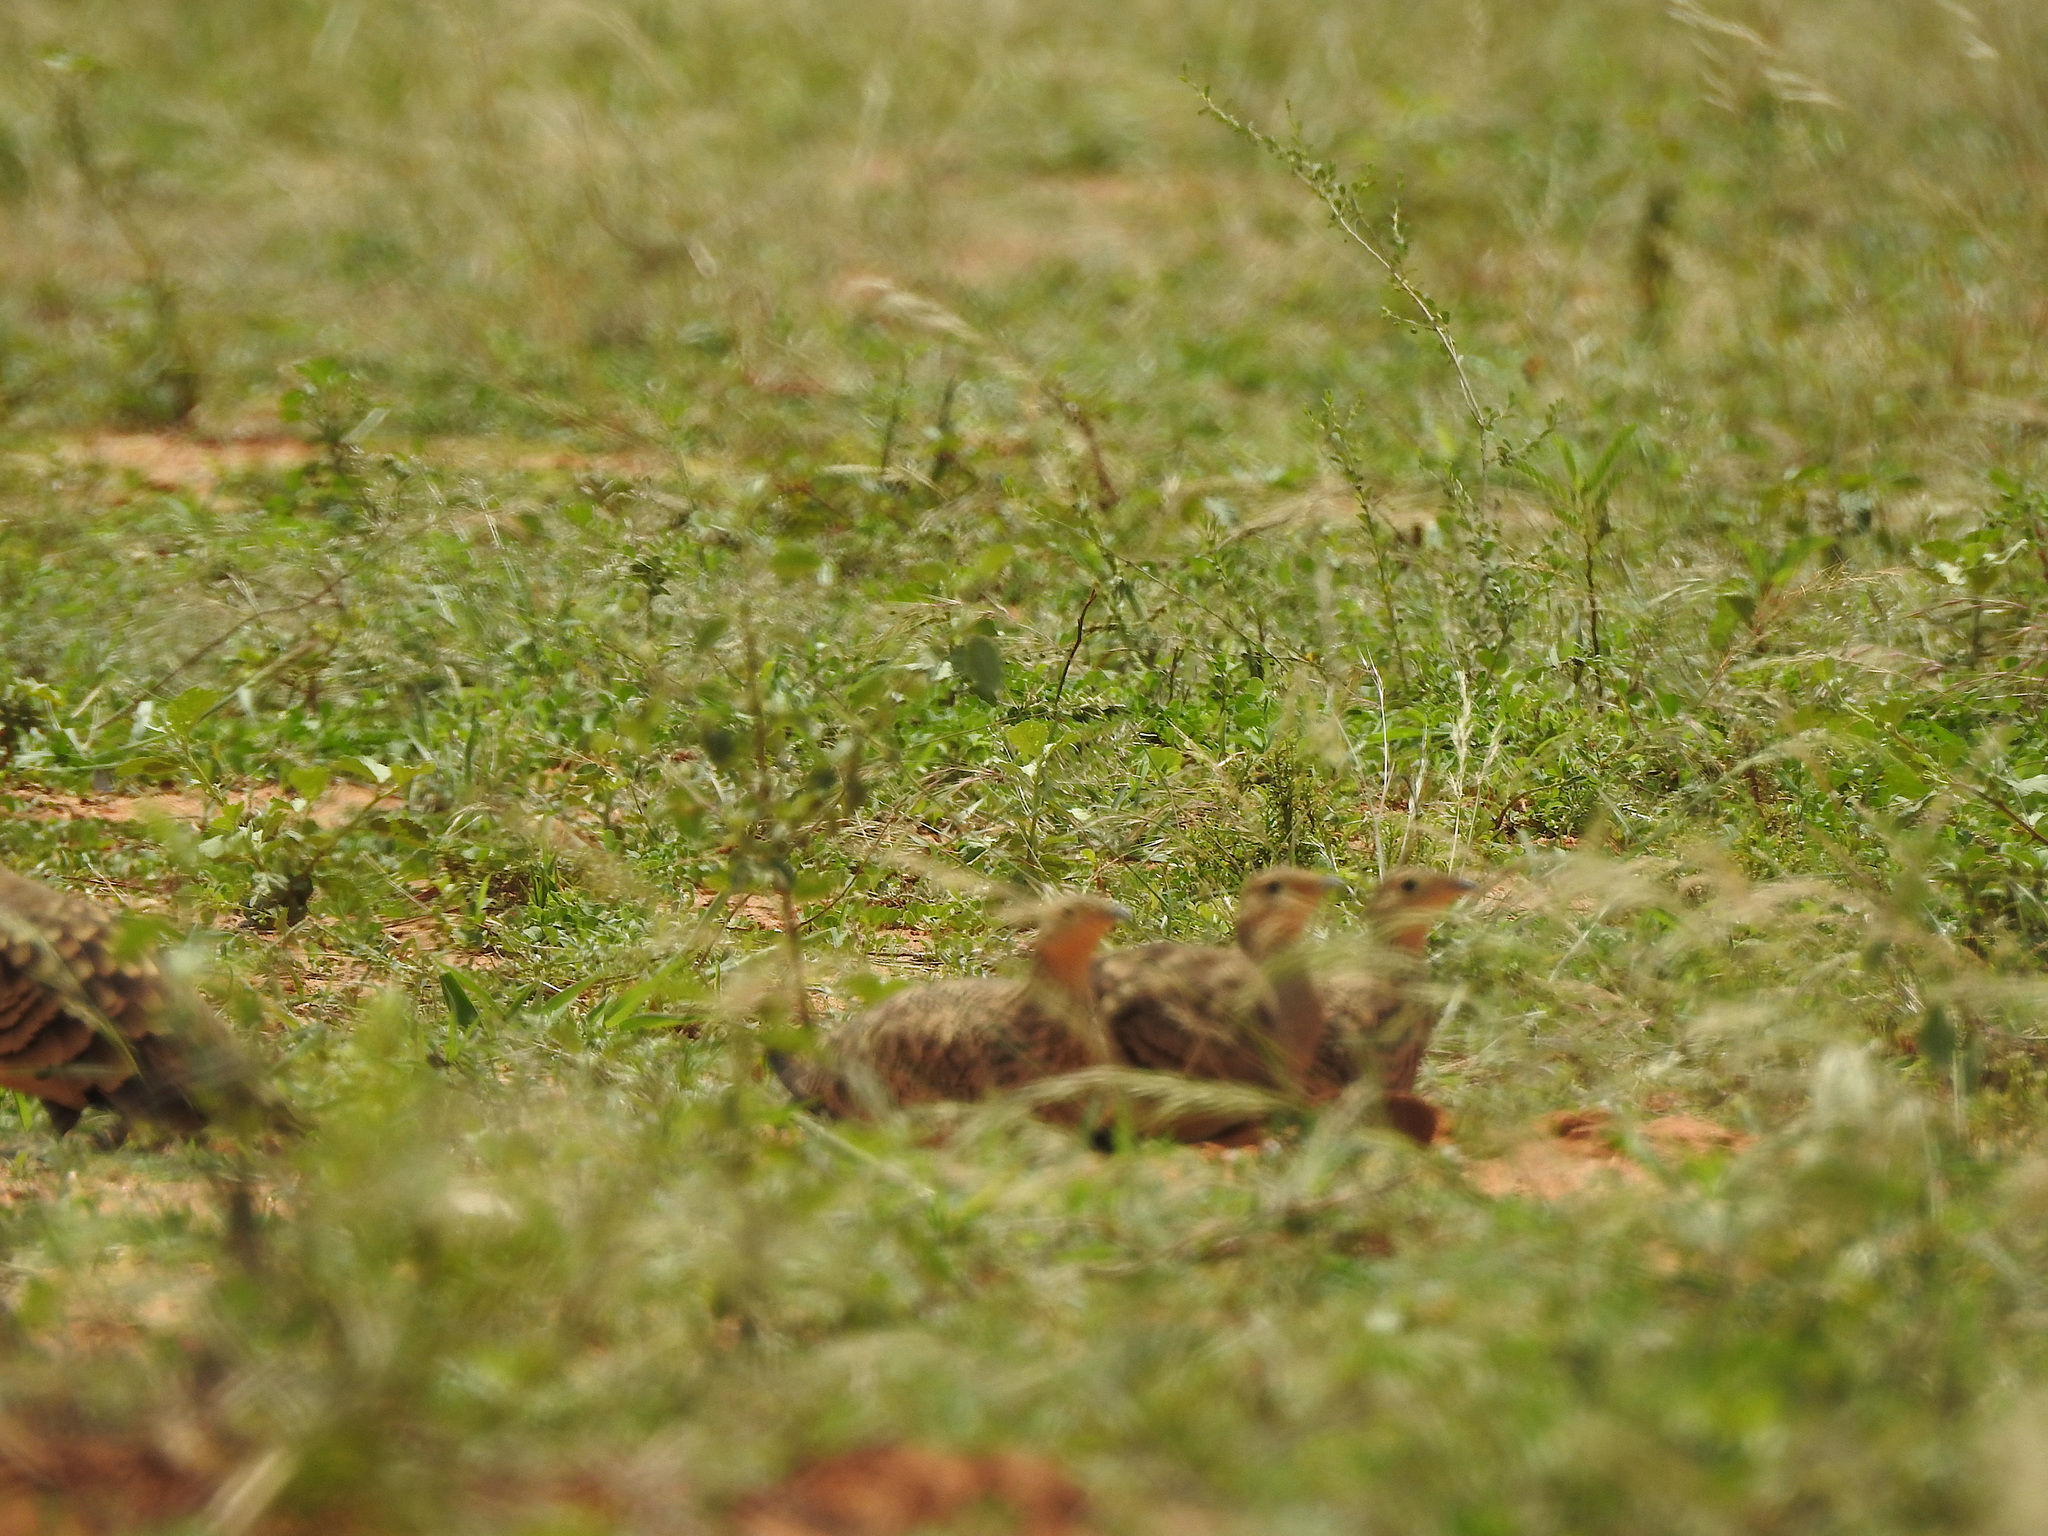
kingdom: Animalia
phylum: Chordata
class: Aves
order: Pteroclidiformes
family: Pteroclididae
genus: Pterocles
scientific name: Pterocles exustus
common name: Chestnut-bellied sandgrouse
